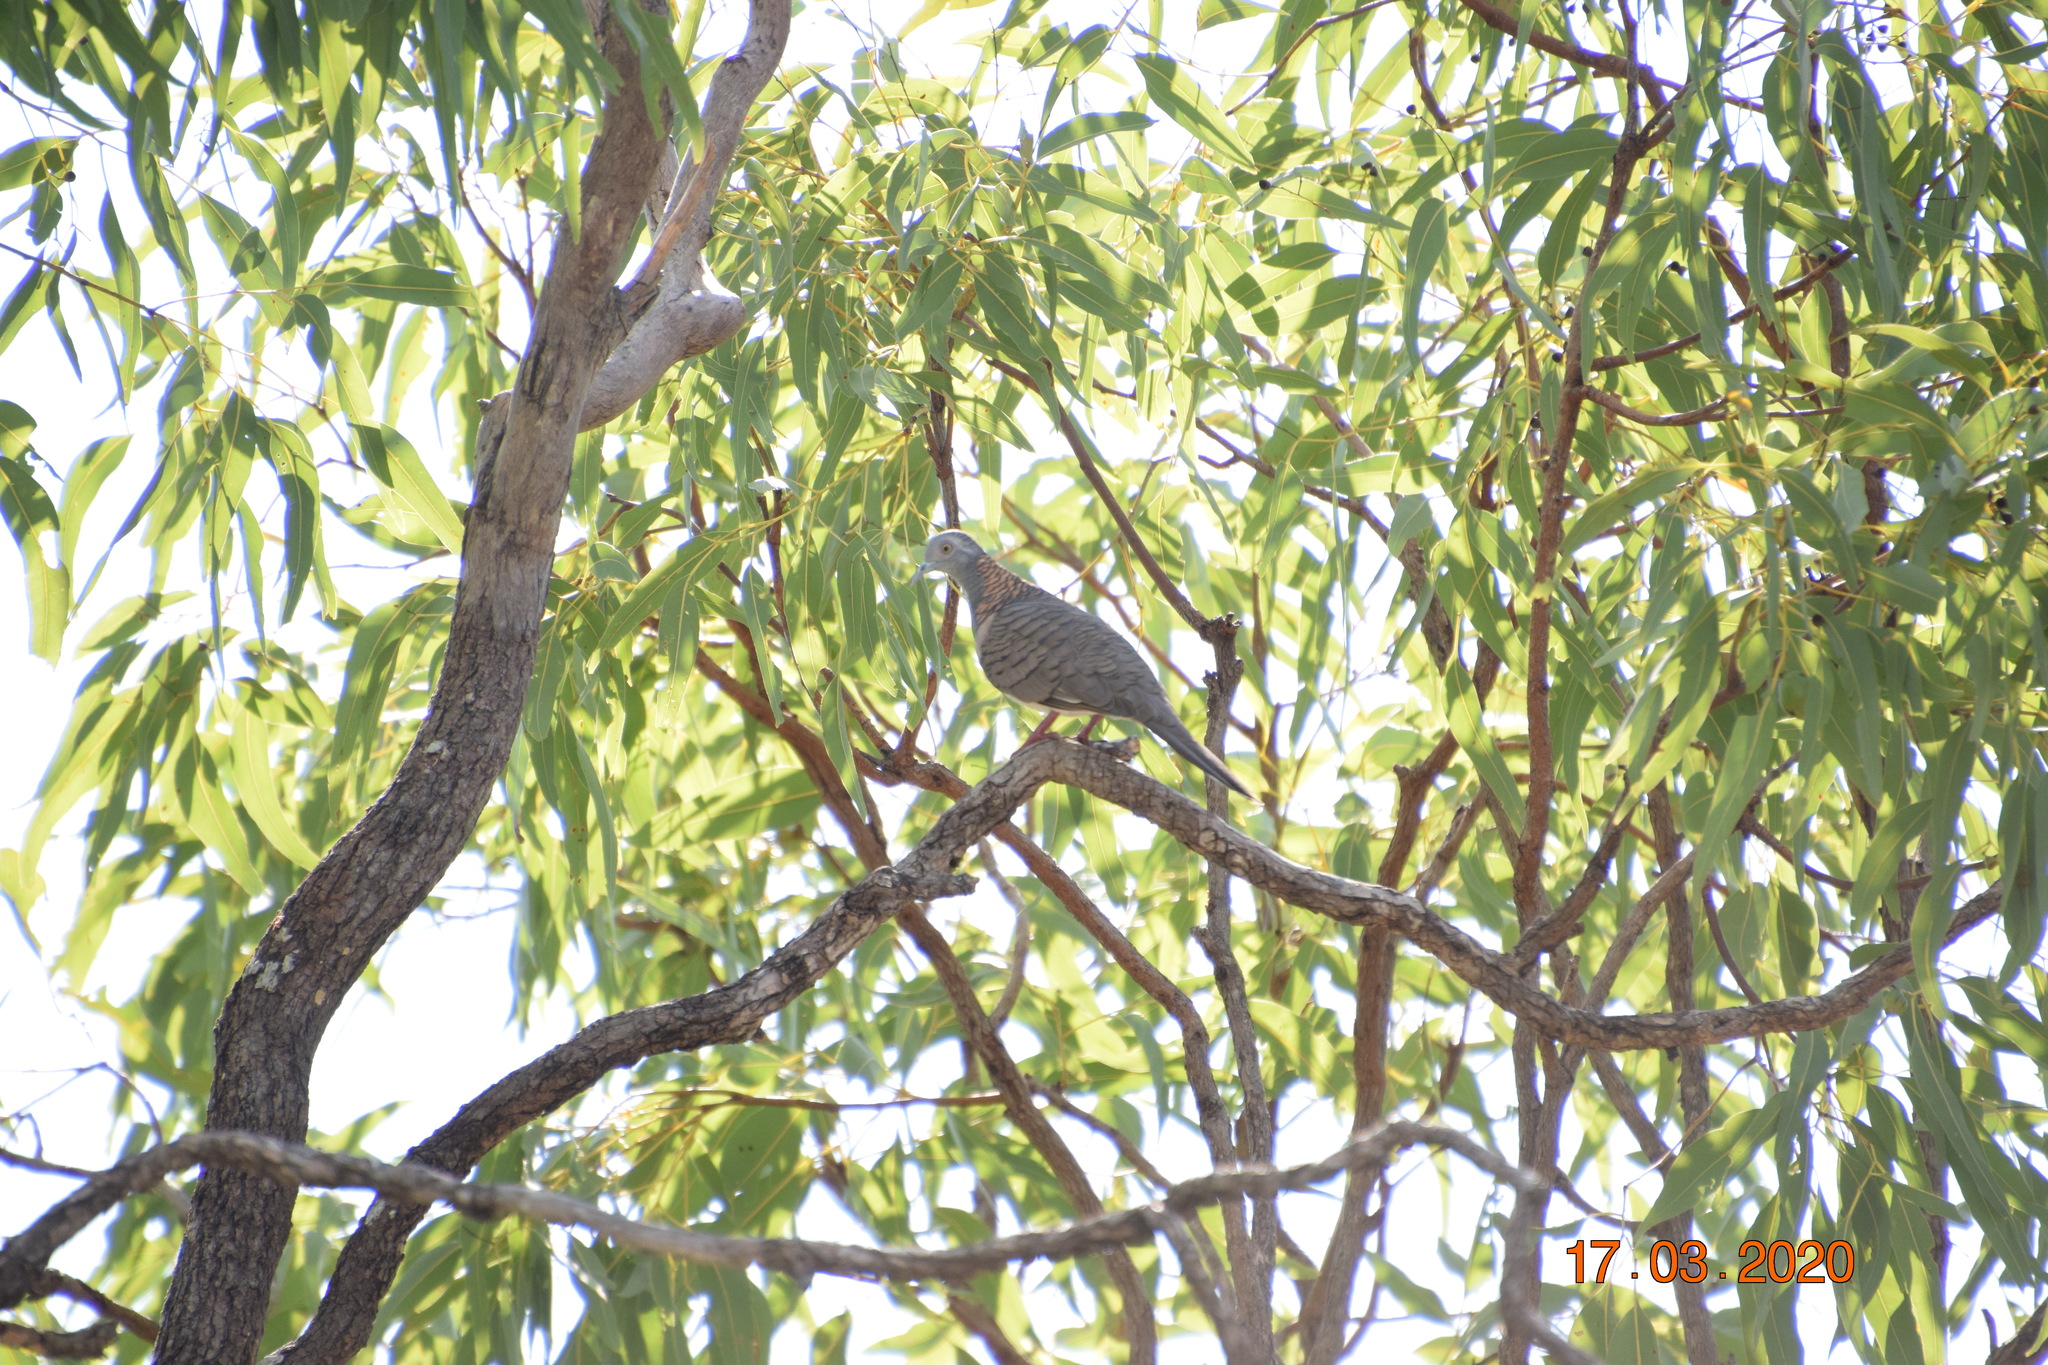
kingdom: Animalia
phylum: Chordata
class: Aves
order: Columbiformes
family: Columbidae
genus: Geopelia
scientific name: Geopelia humeralis
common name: Bar-shouldered dove
